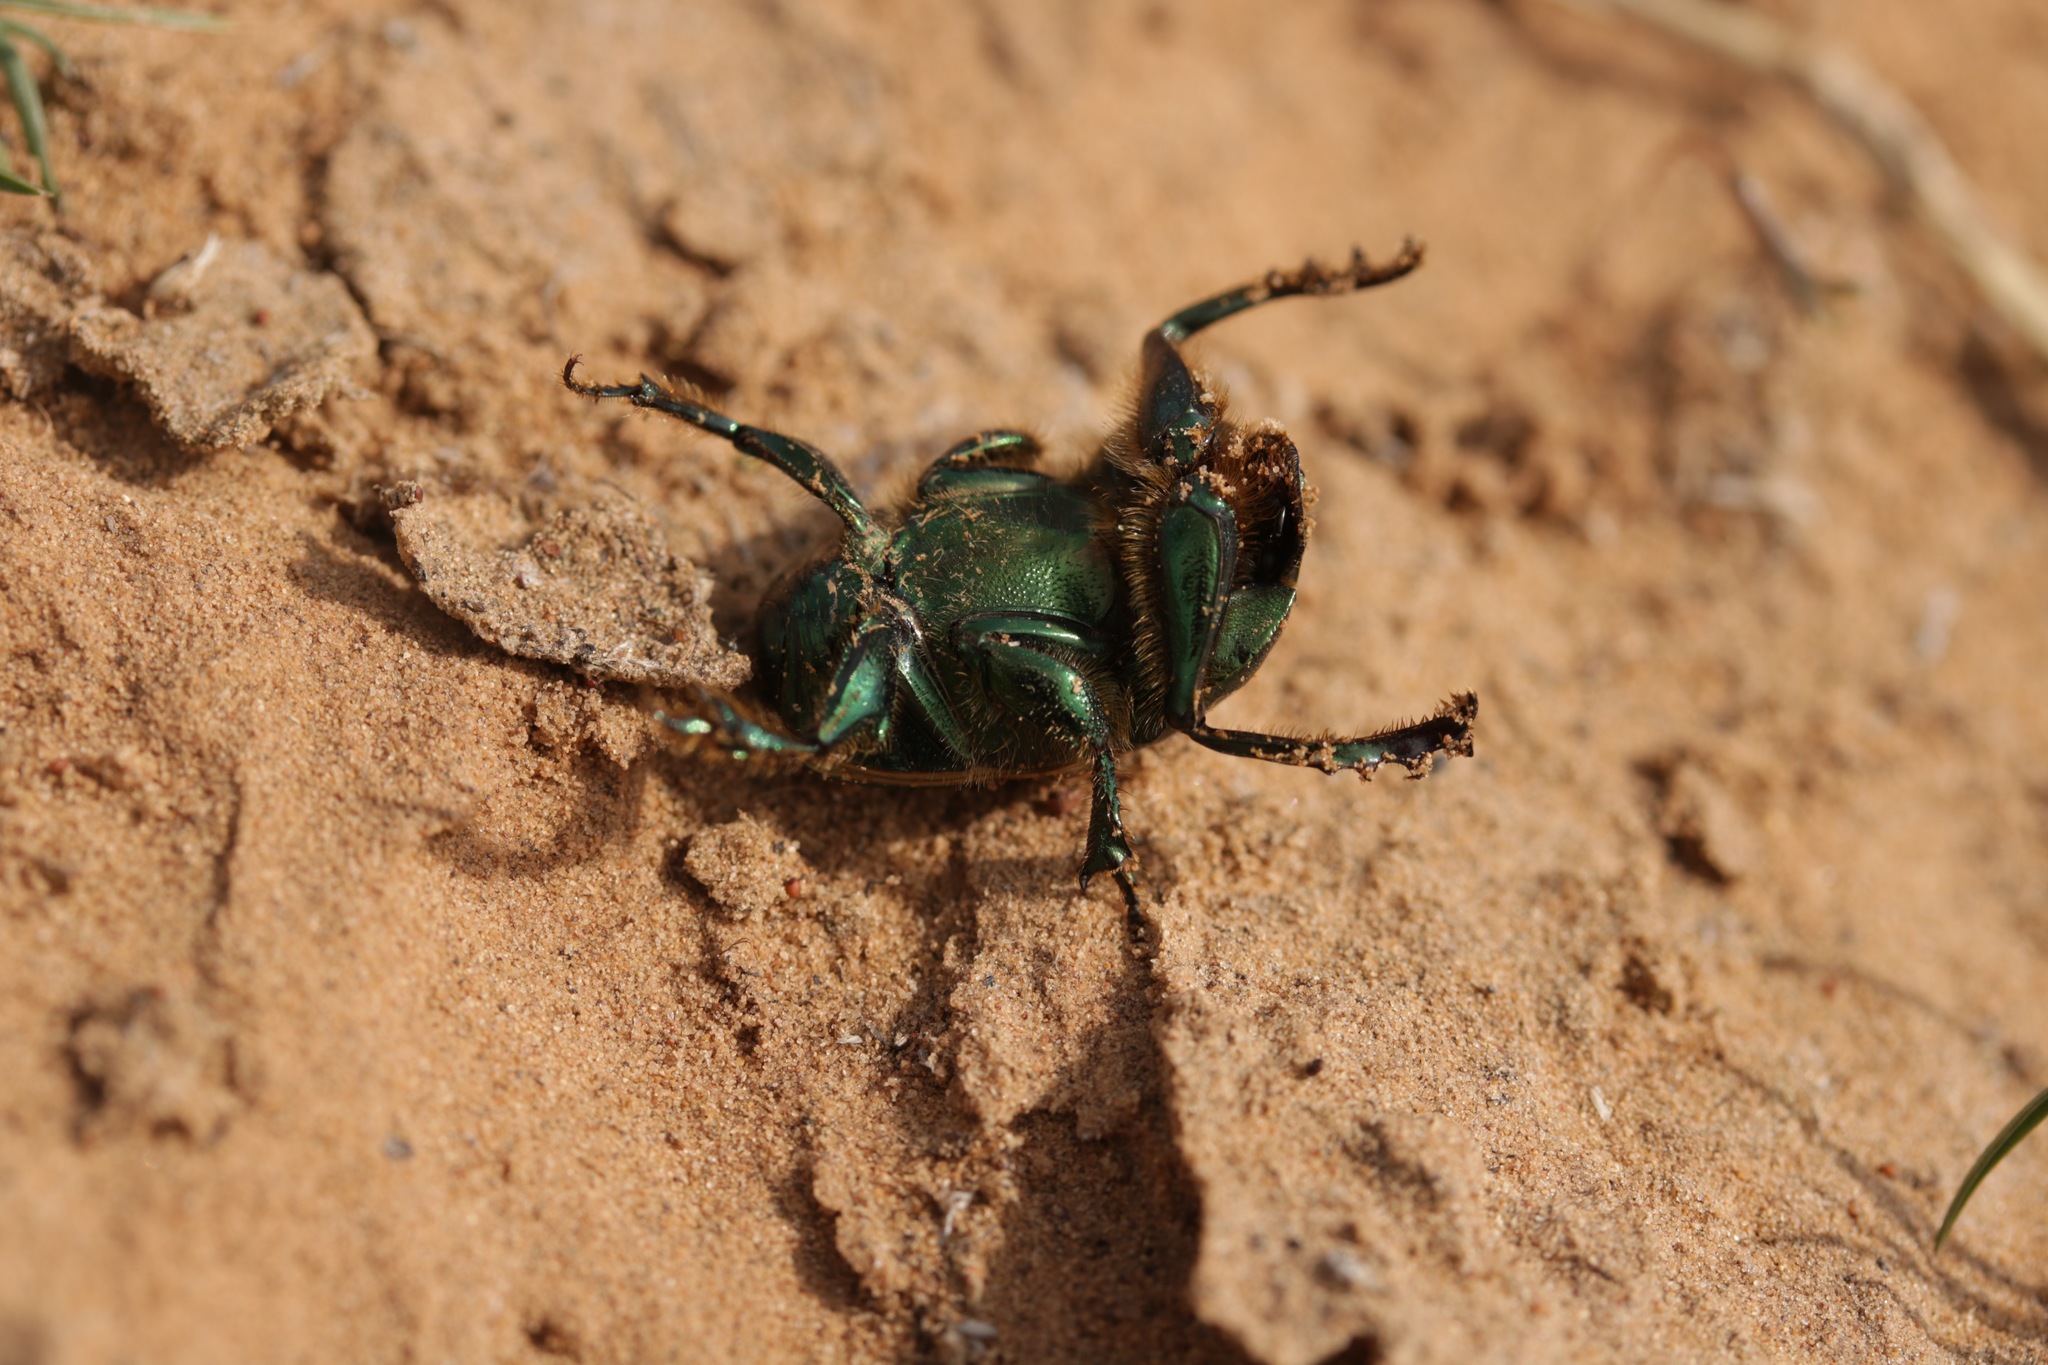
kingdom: Animalia
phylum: Arthropoda
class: Insecta
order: Coleoptera
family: Scarabaeidae
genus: Onitis
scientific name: Onitis humerosus
